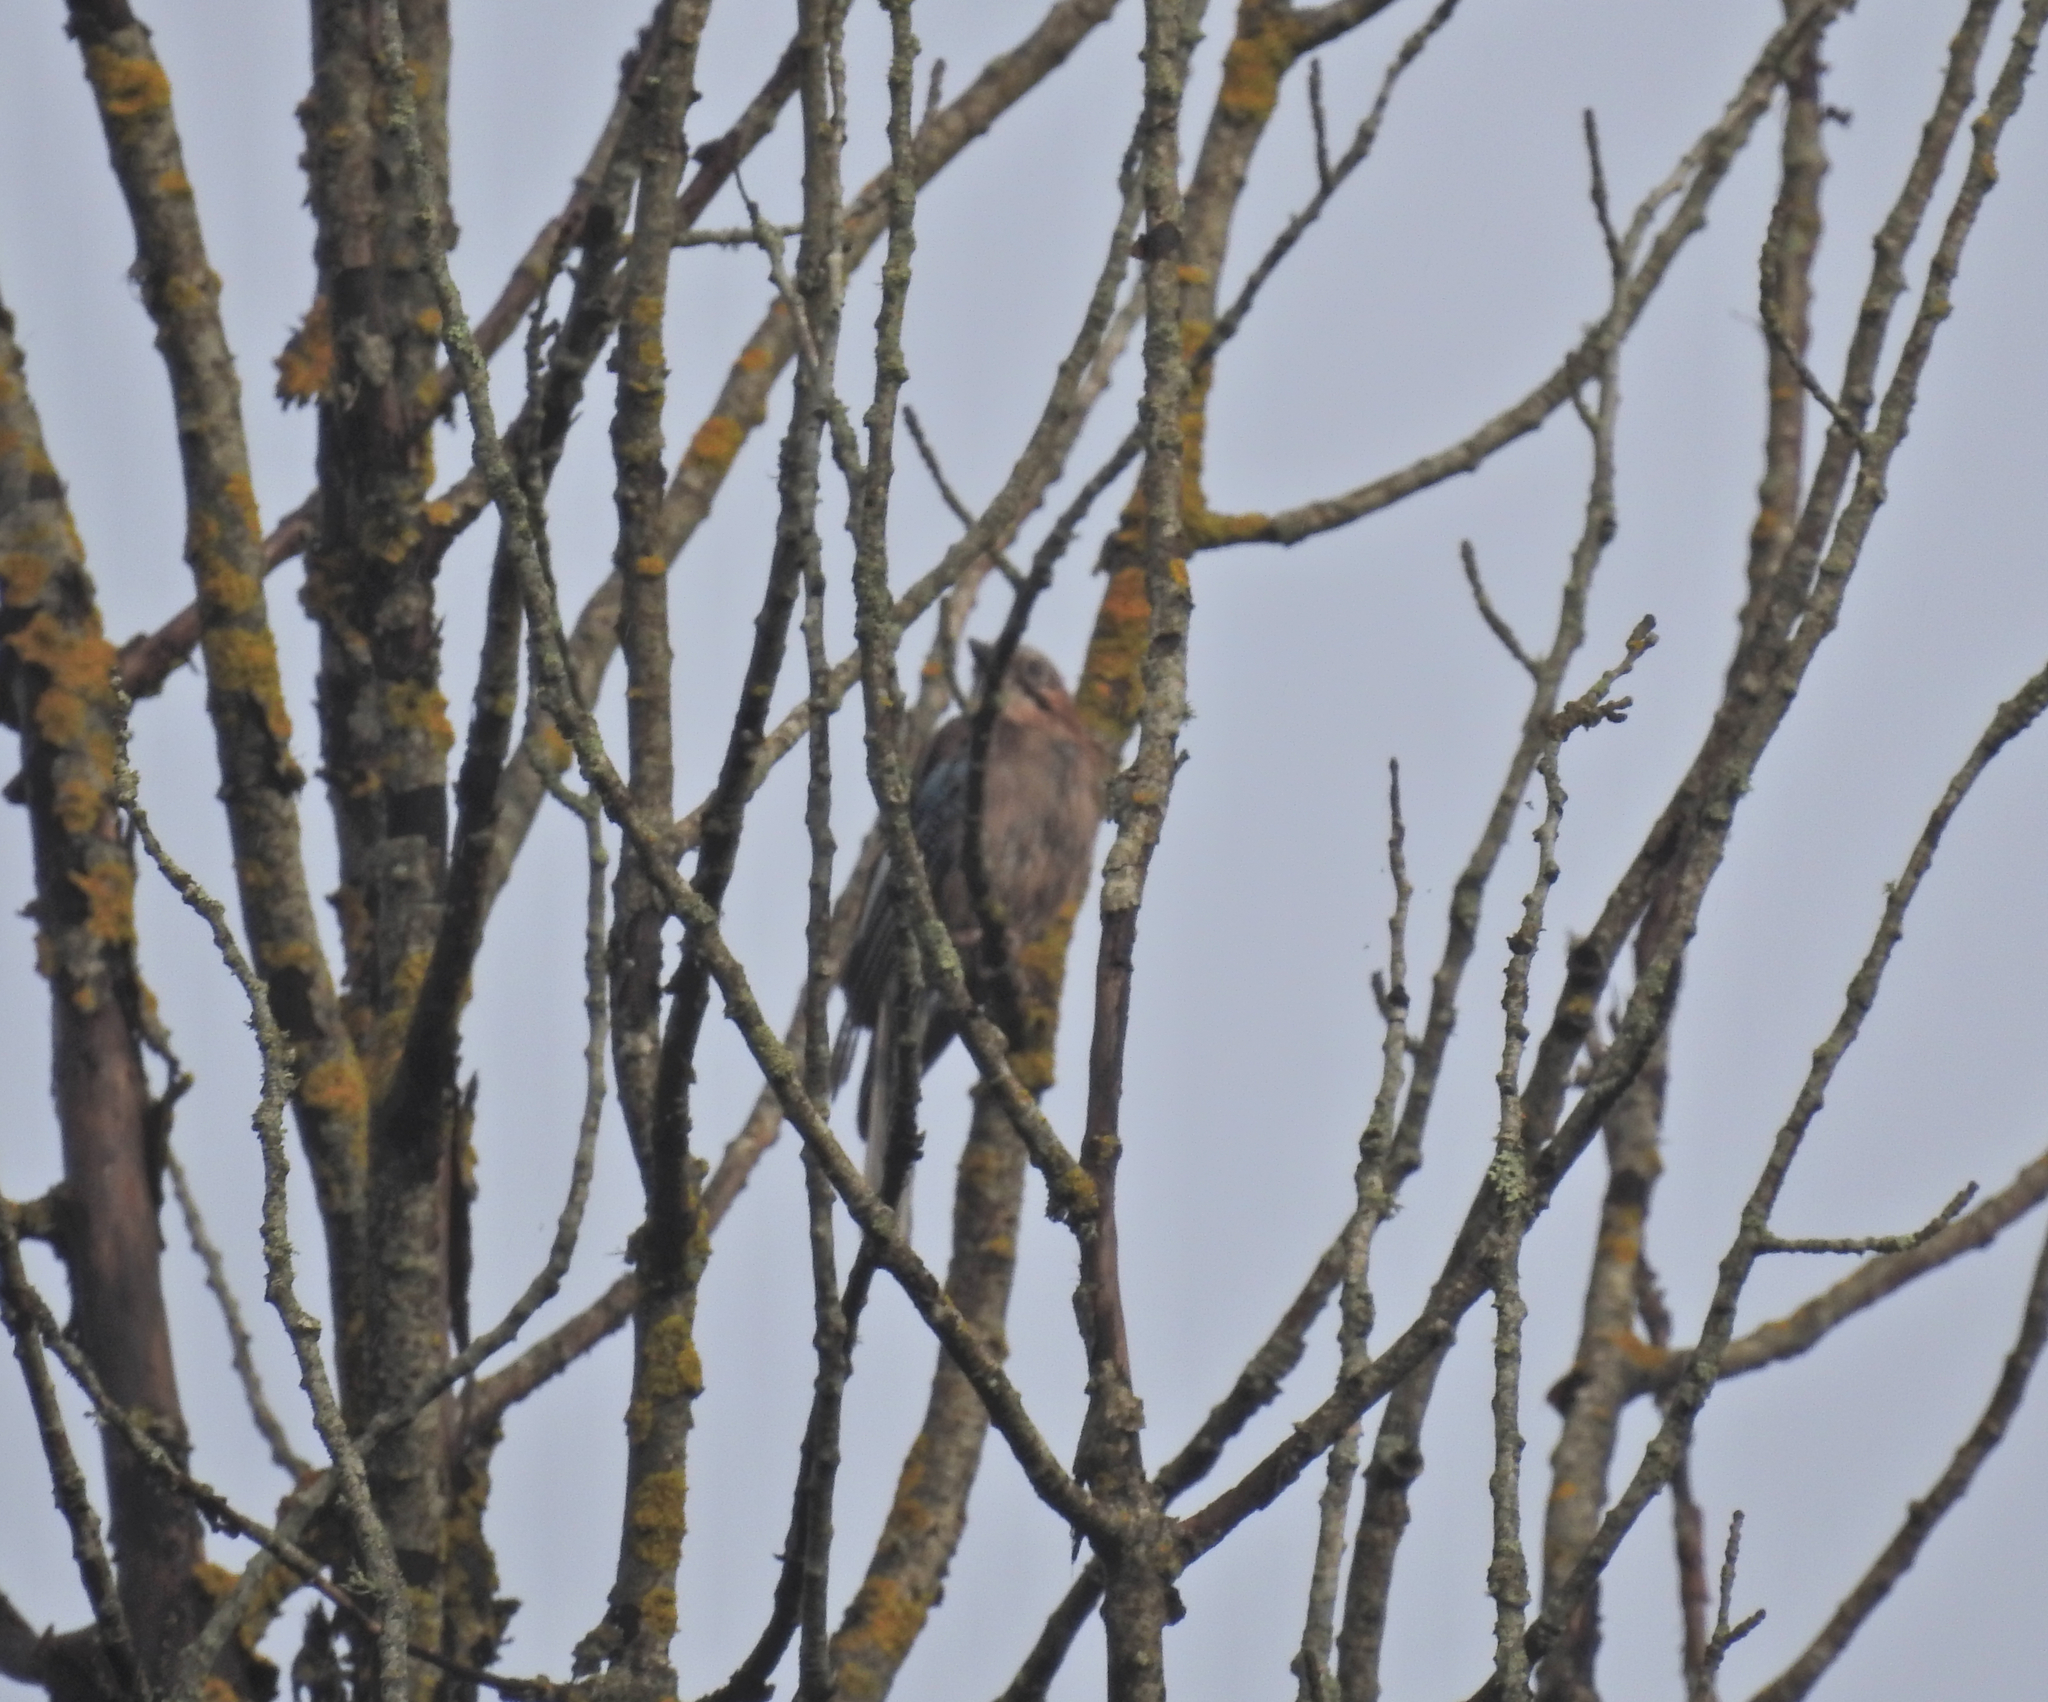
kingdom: Animalia
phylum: Chordata
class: Aves
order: Passeriformes
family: Corvidae
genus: Garrulus
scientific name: Garrulus glandarius
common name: Eurasian jay
